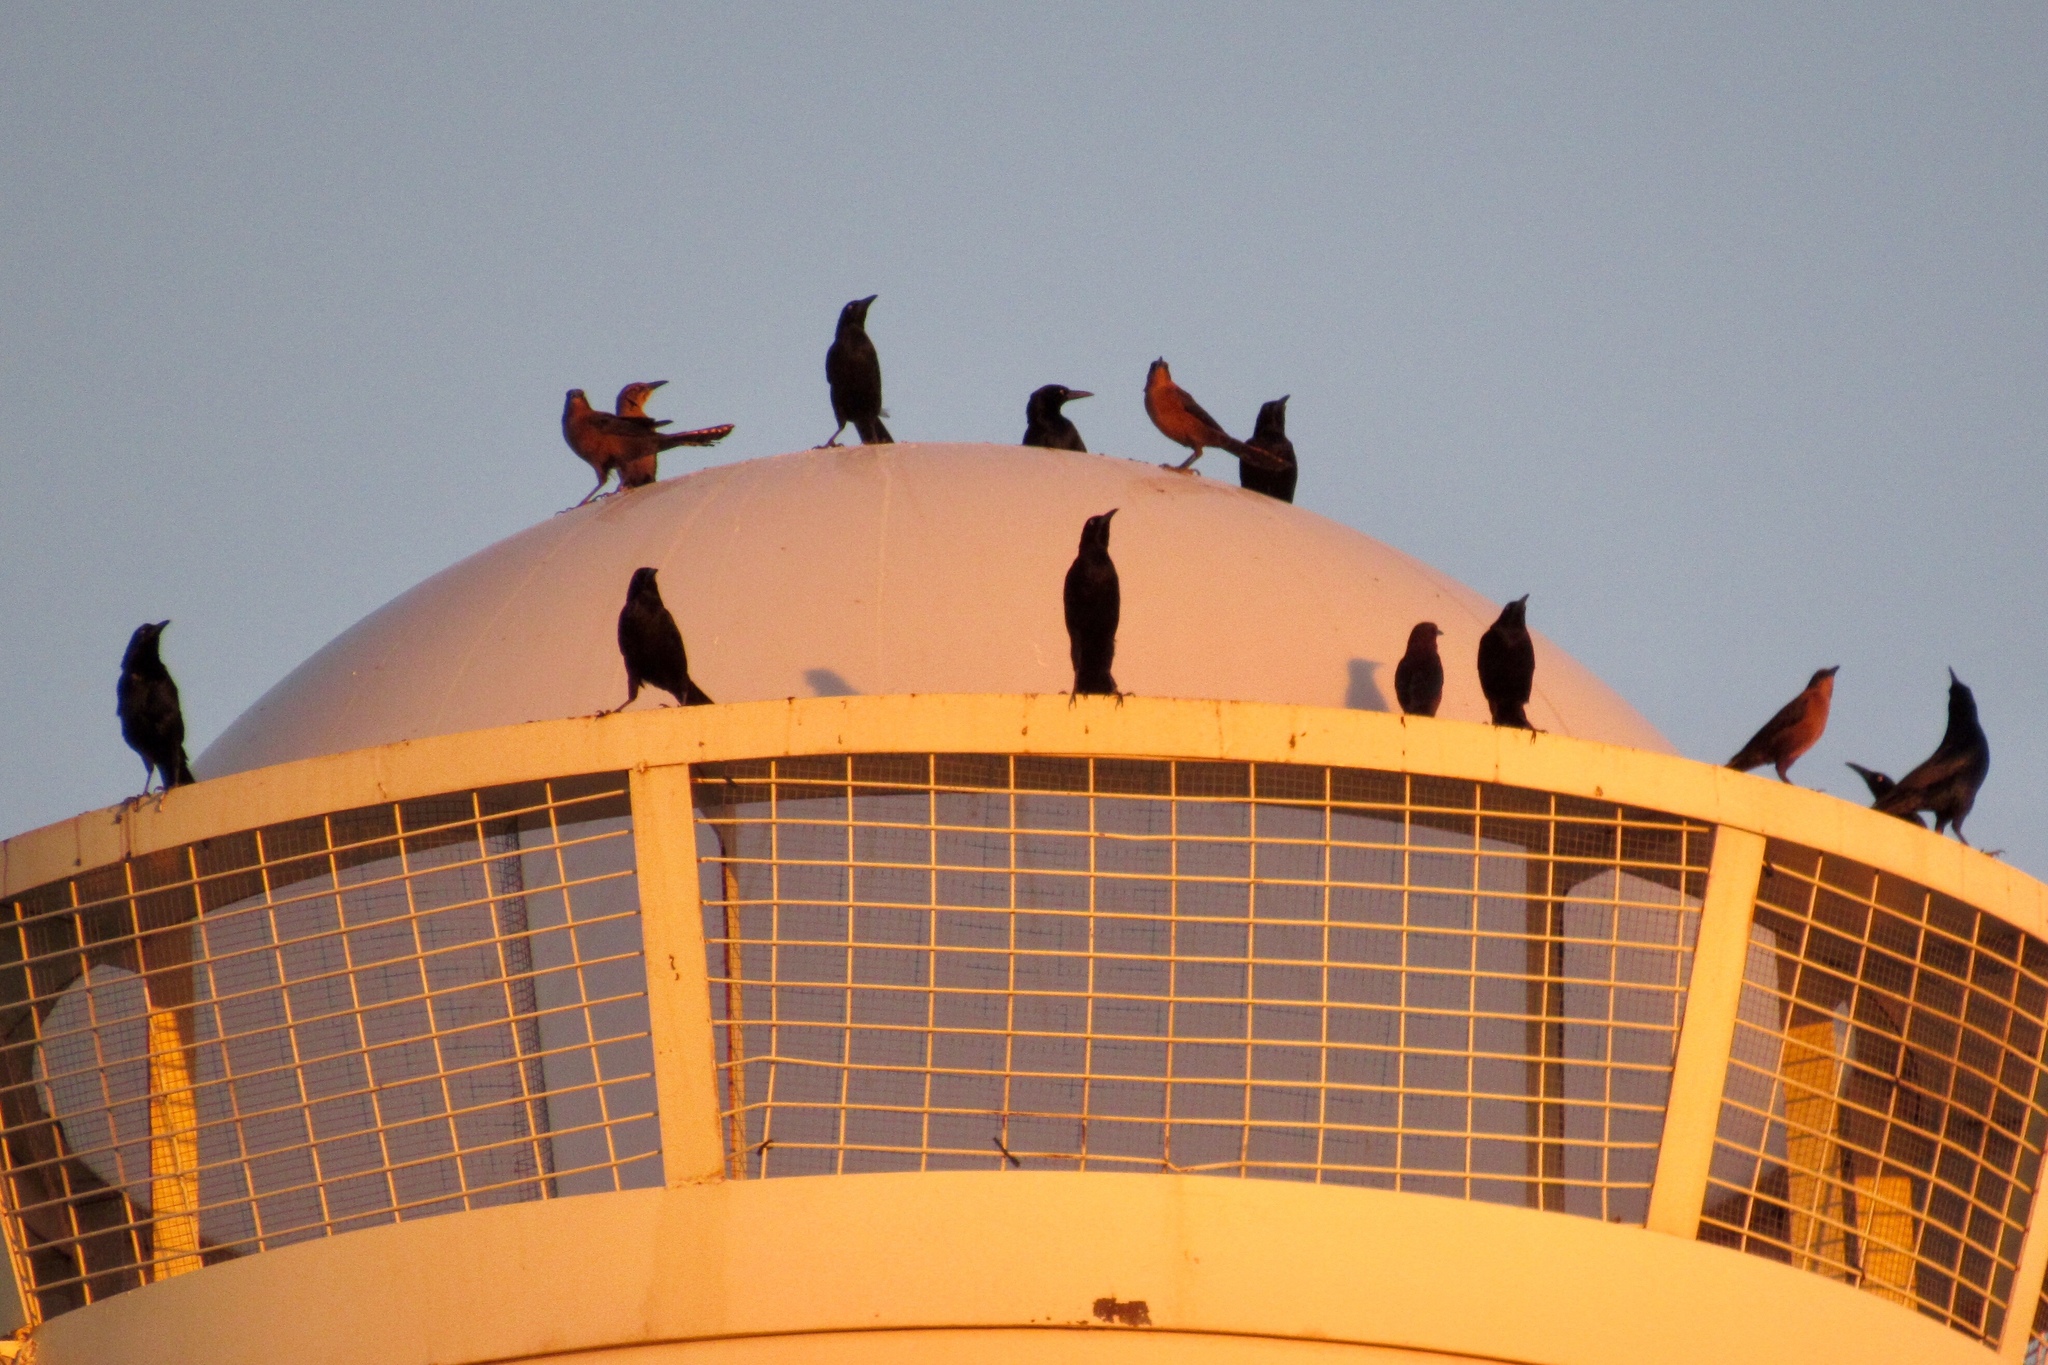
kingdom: Animalia
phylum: Chordata
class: Aves
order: Passeriformes
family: Icteridae
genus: Quiscalus
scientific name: Quiscalus mexicanus
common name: Great-tailed grackle
